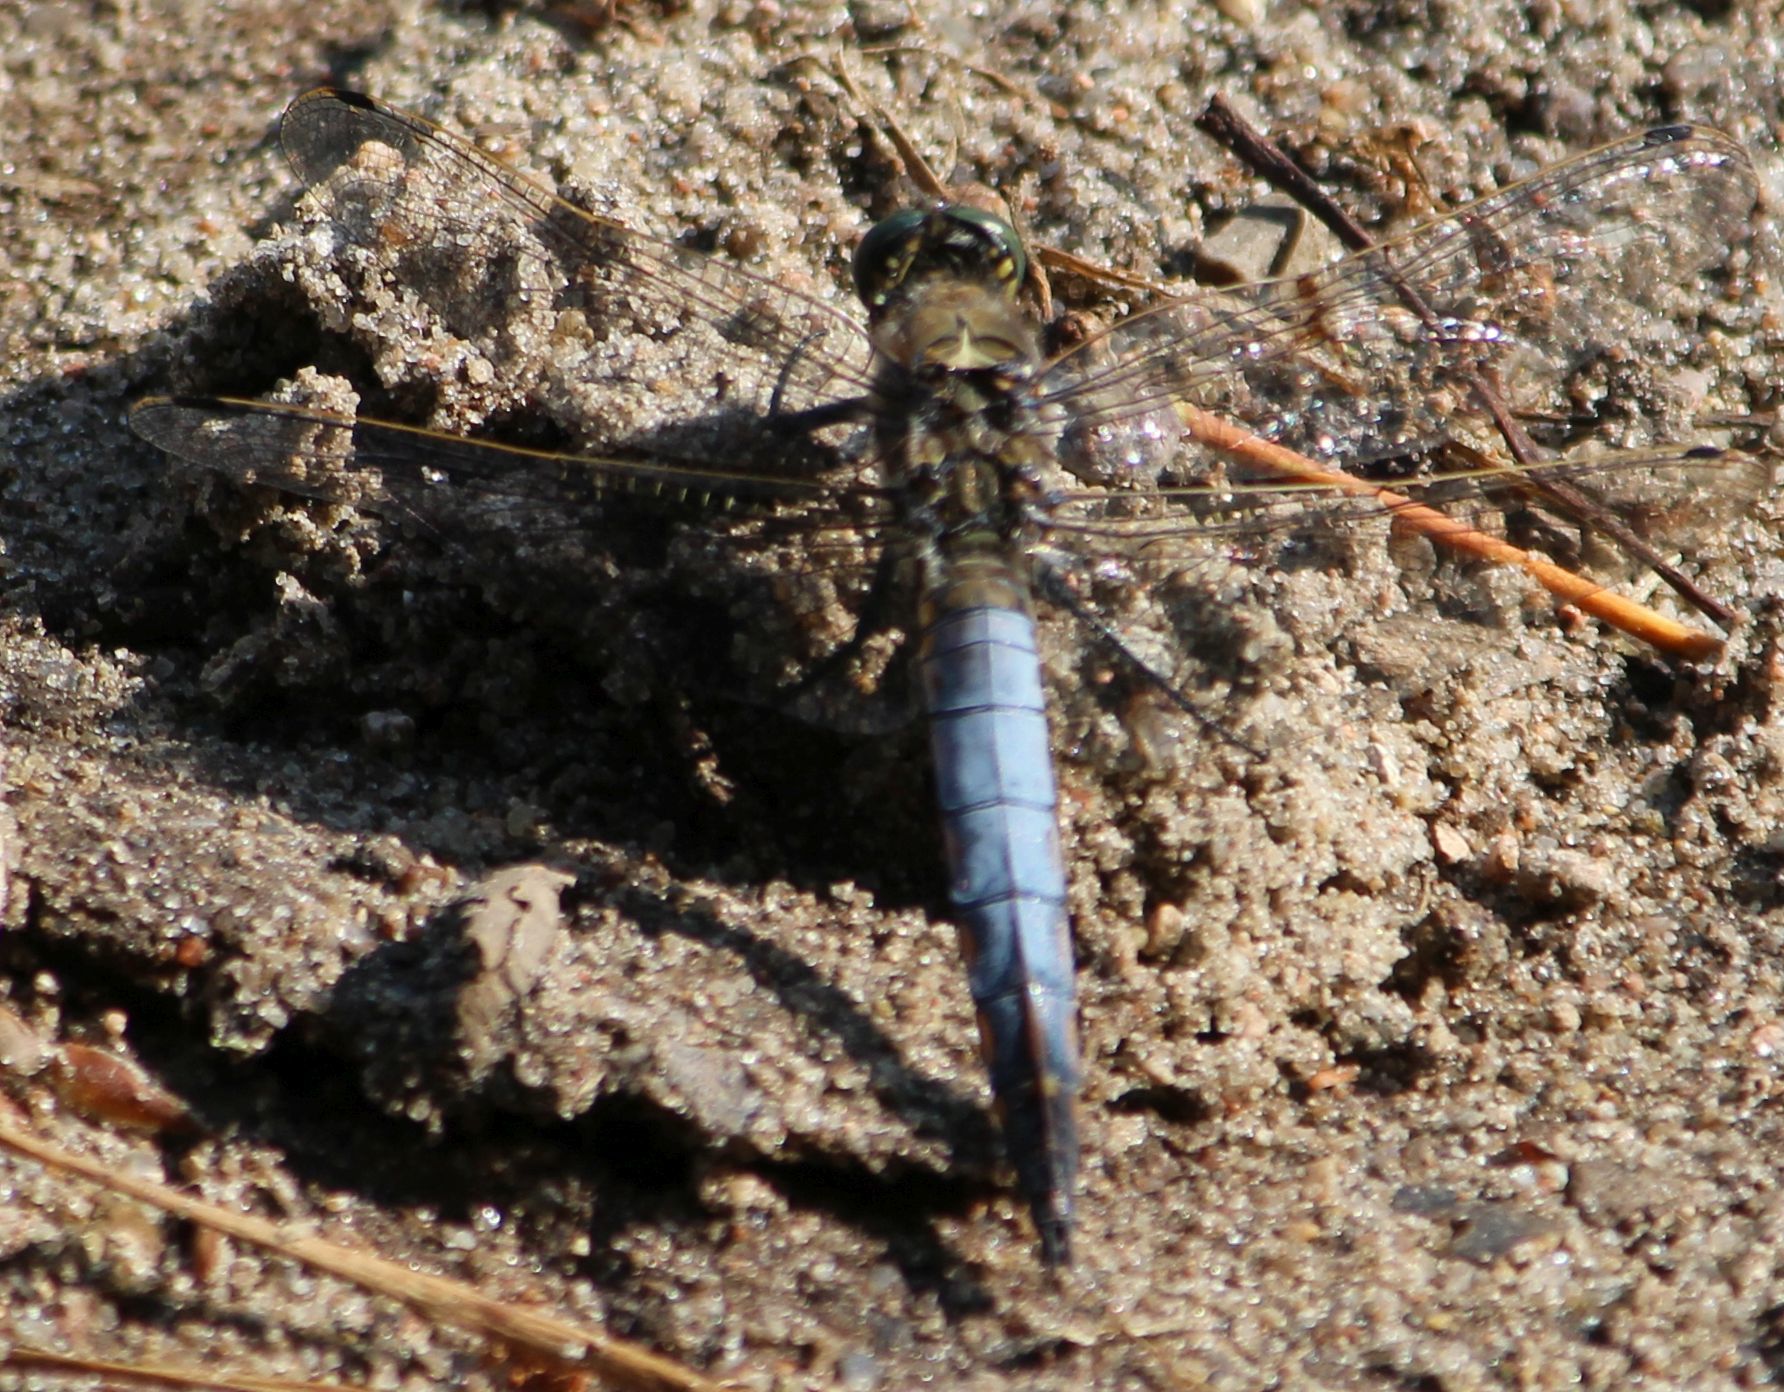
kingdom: Animalia
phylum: Arthropoda
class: Insecta
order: Odonata
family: Libellulidae
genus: Orthetrum
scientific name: Orthetrum cancellatum
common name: Black-tailed skimmer
